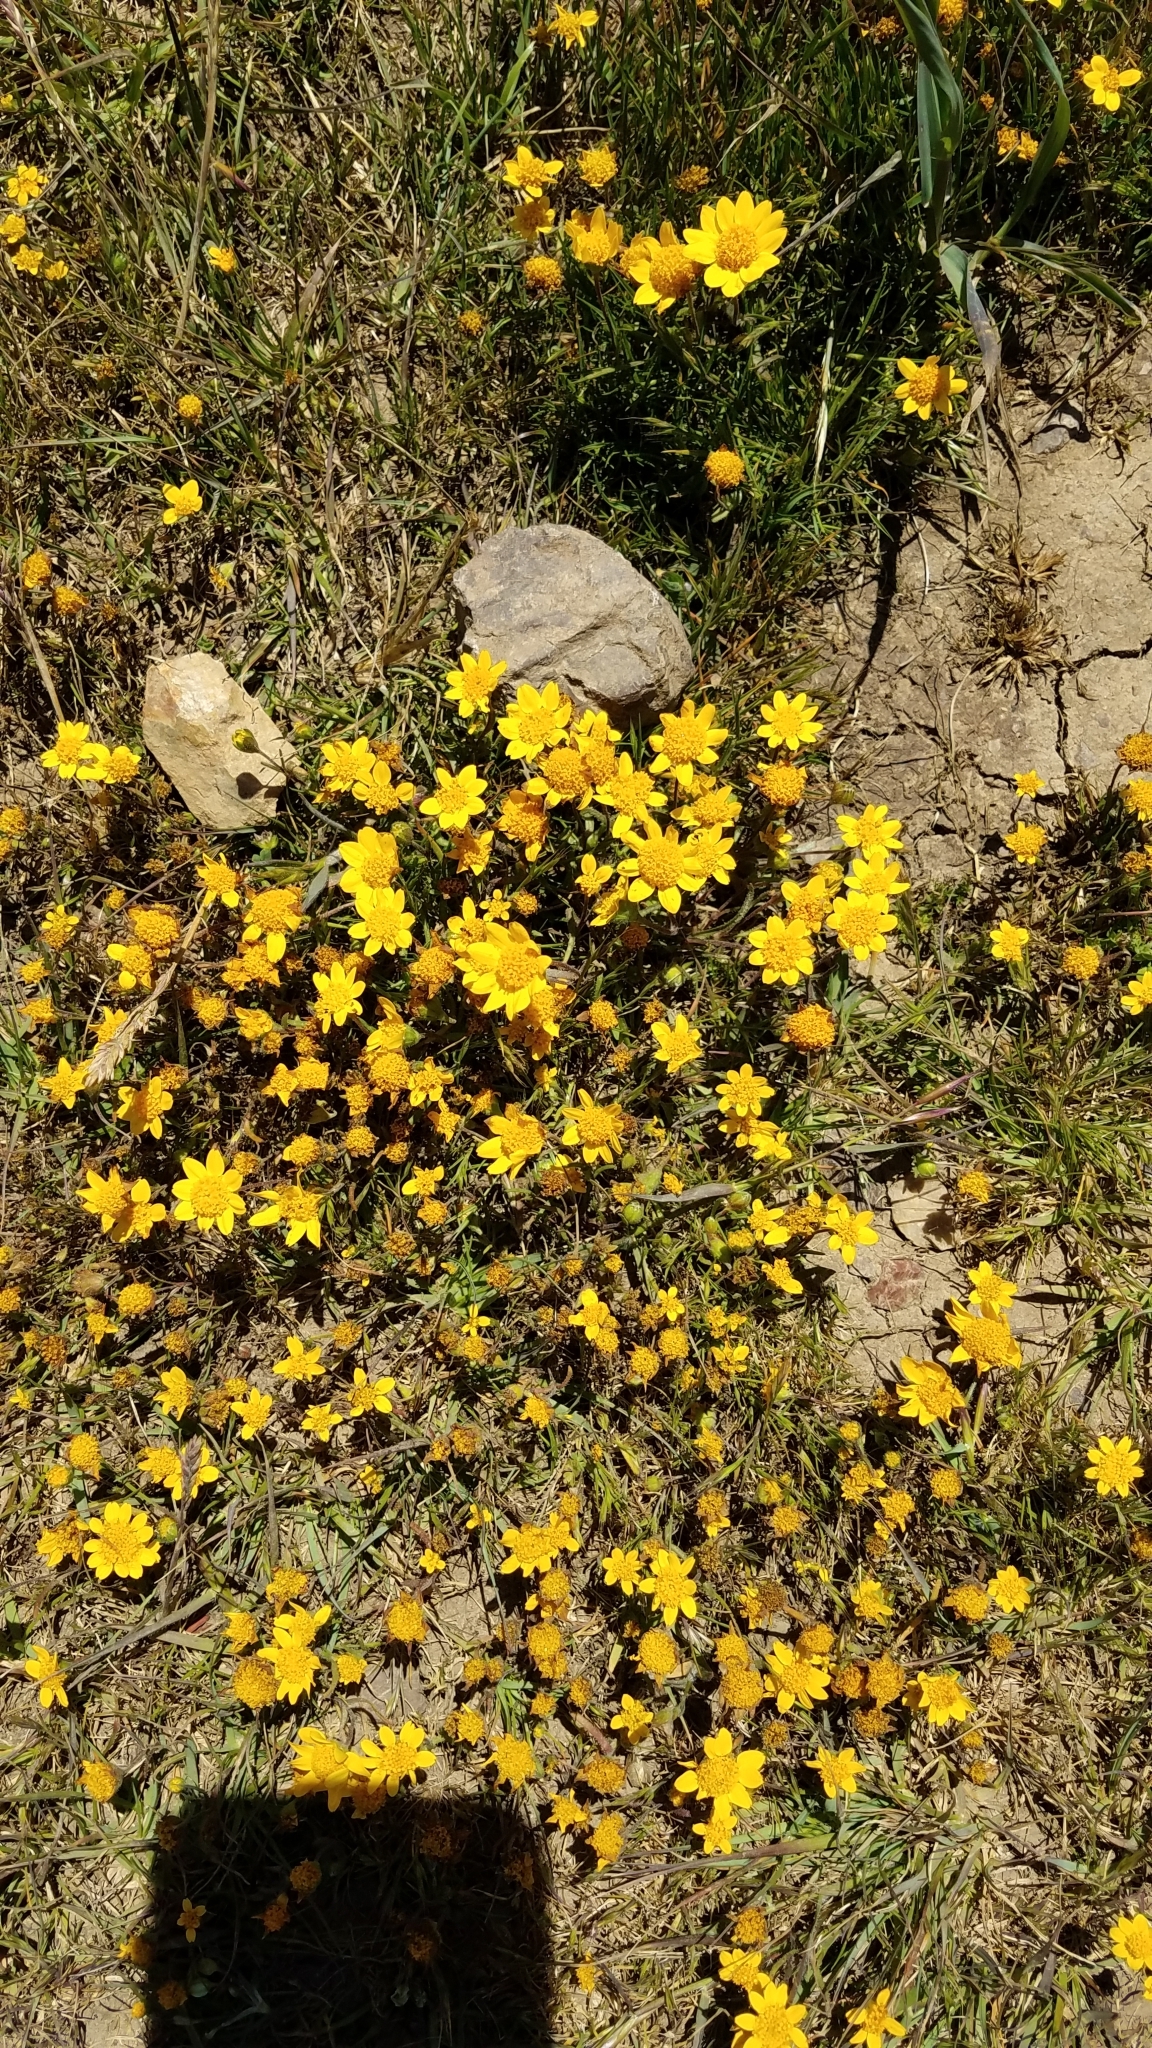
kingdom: Plantae
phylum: Tracheophyta
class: Magnoliopsida
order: Asterales
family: Asteraceae
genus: Lasthenia
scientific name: Lasthenia gracilis
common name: Common goldfields
